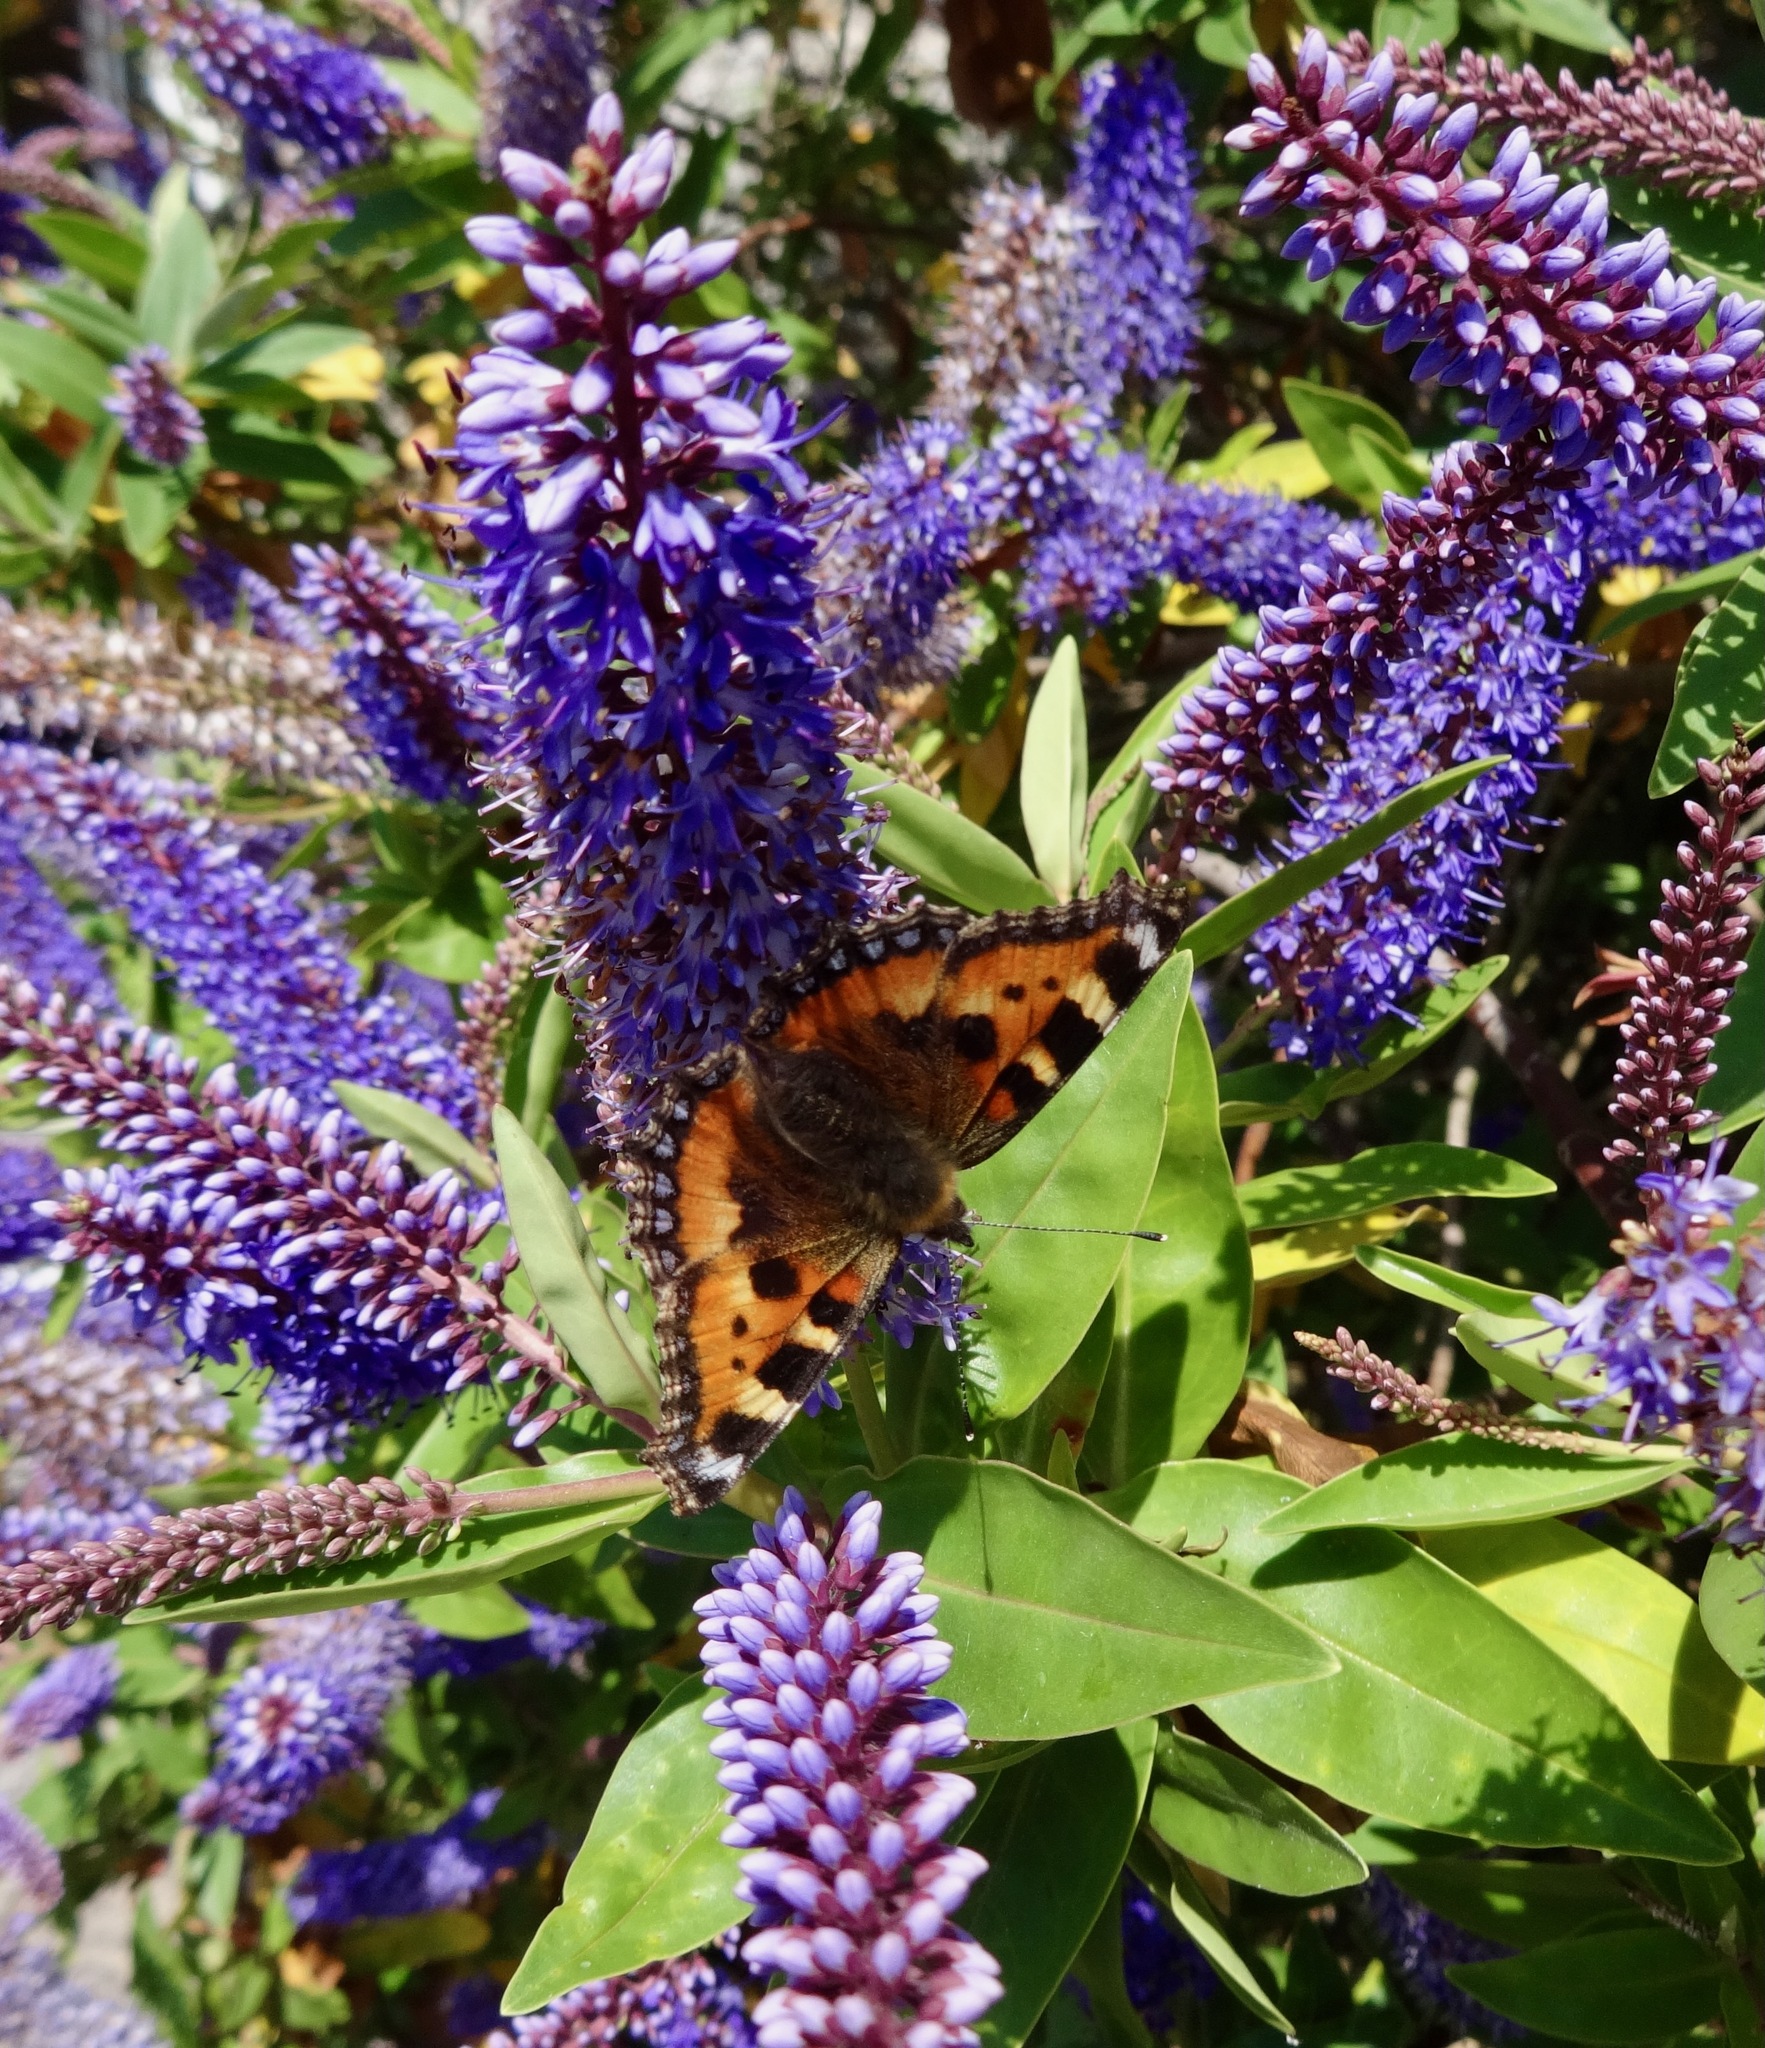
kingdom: Animalia
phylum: Arthropoda
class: Insecta
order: Lepidoptera
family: Nymphalidae
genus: Aglais
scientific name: Aglais urticae
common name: Small tortoiseshell
